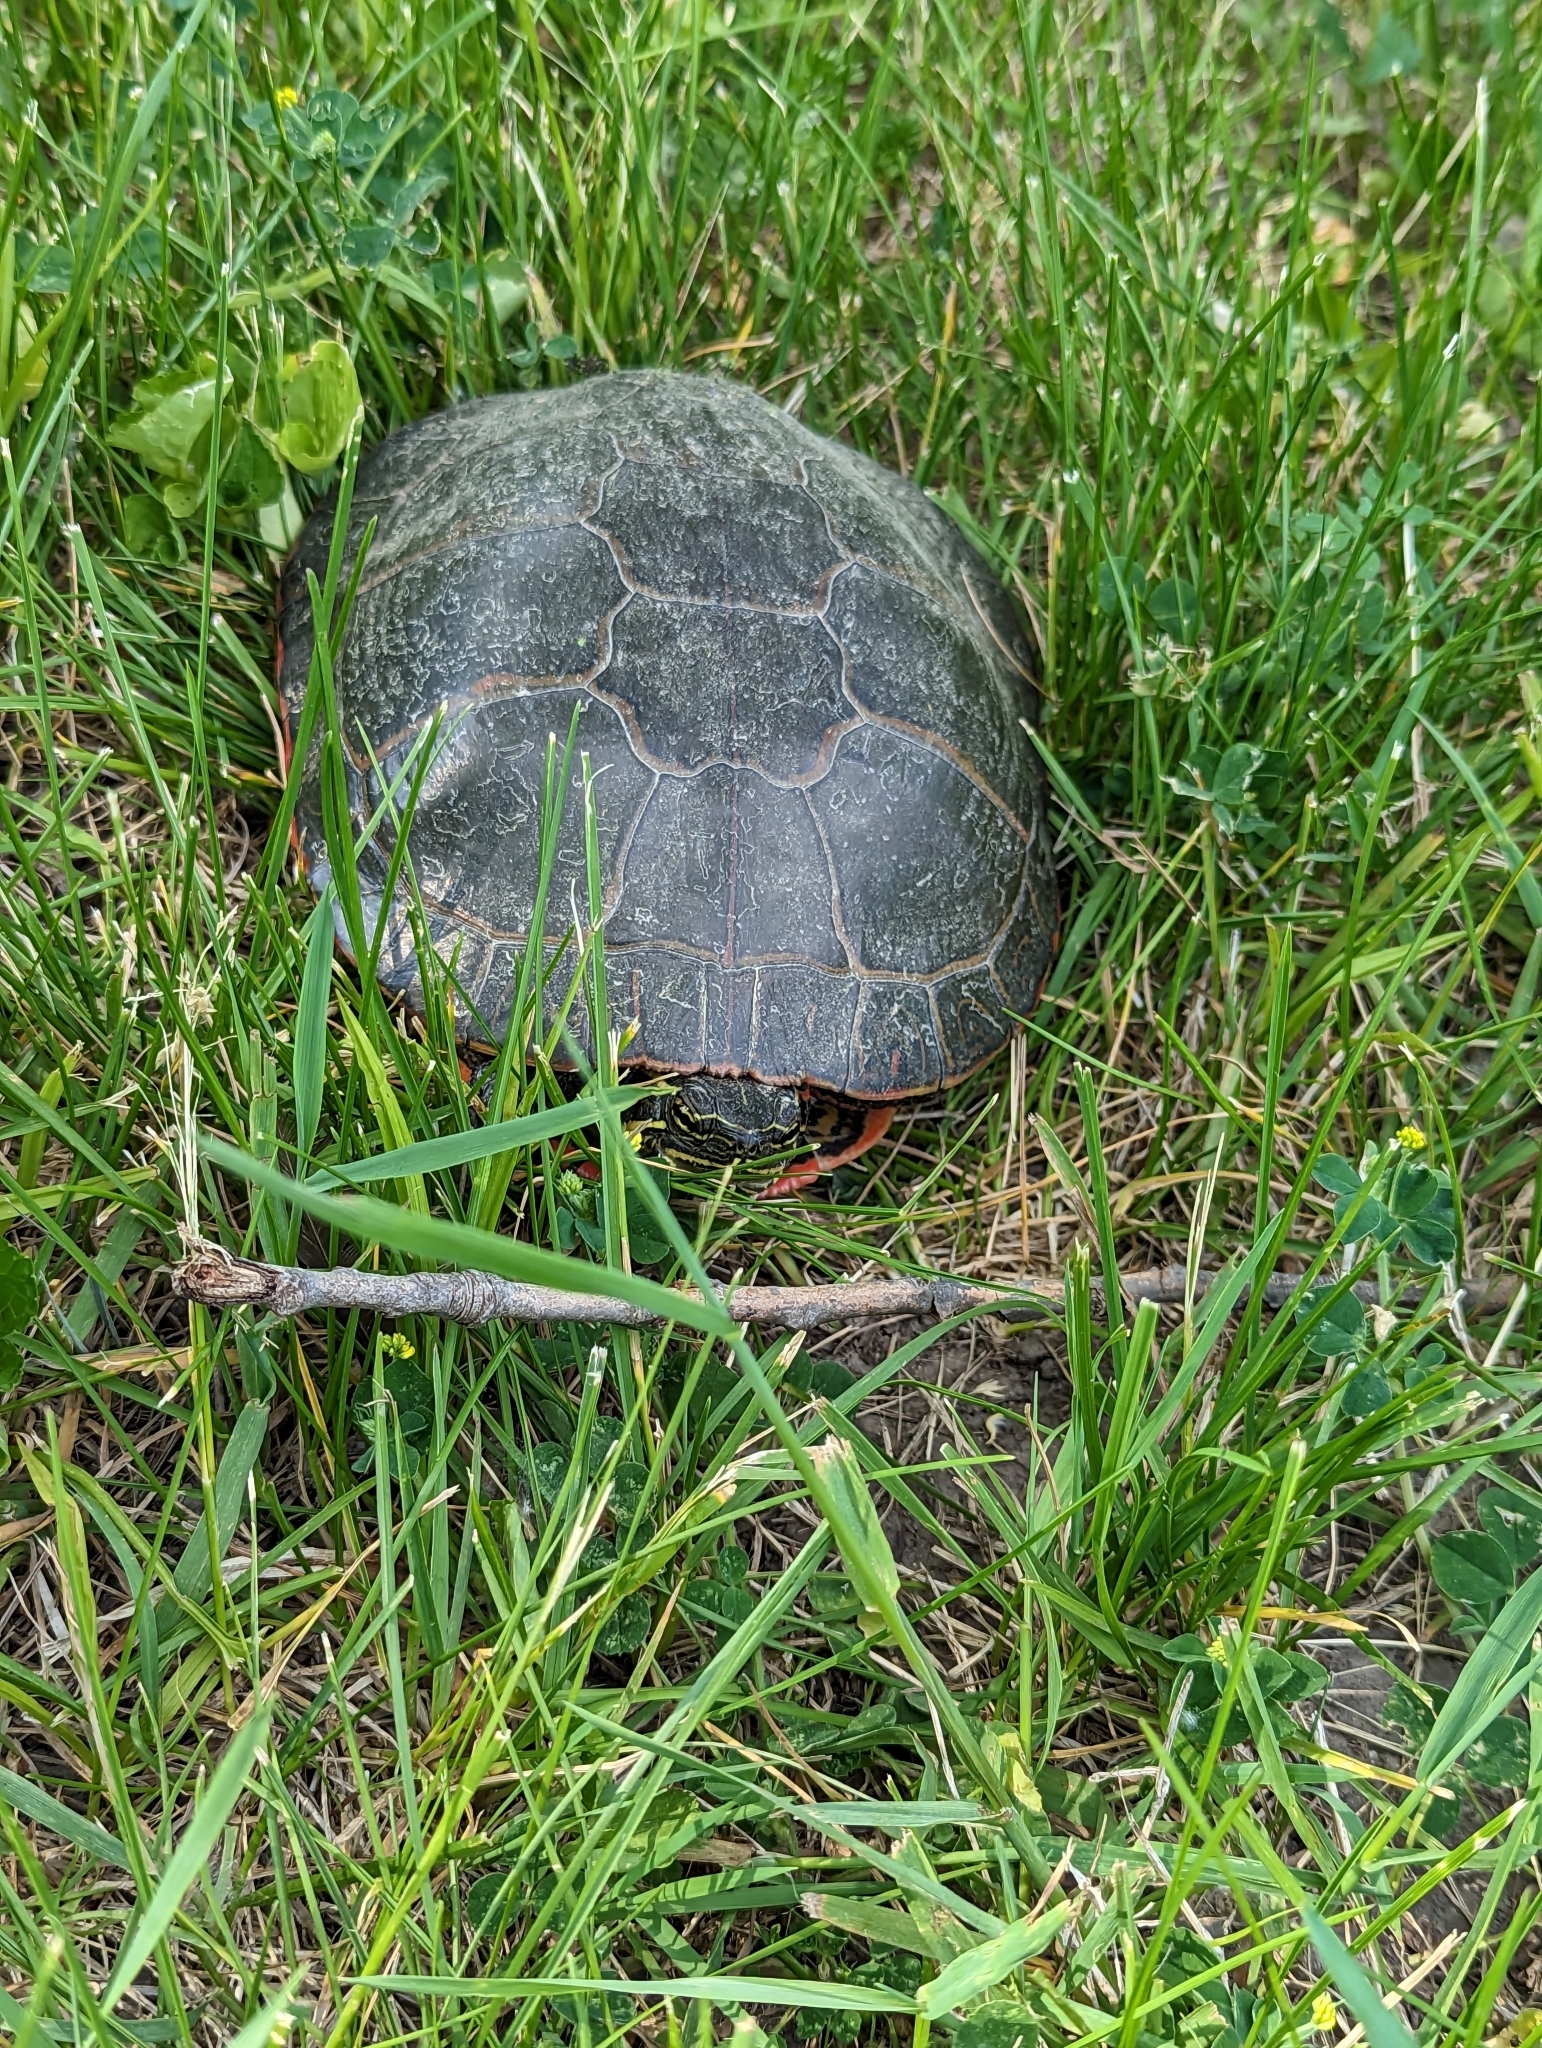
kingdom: Animalia
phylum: Chordata
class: Testudines
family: Emydidae
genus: Chrysemys
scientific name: Chrysemys picta
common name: Painted turtle
